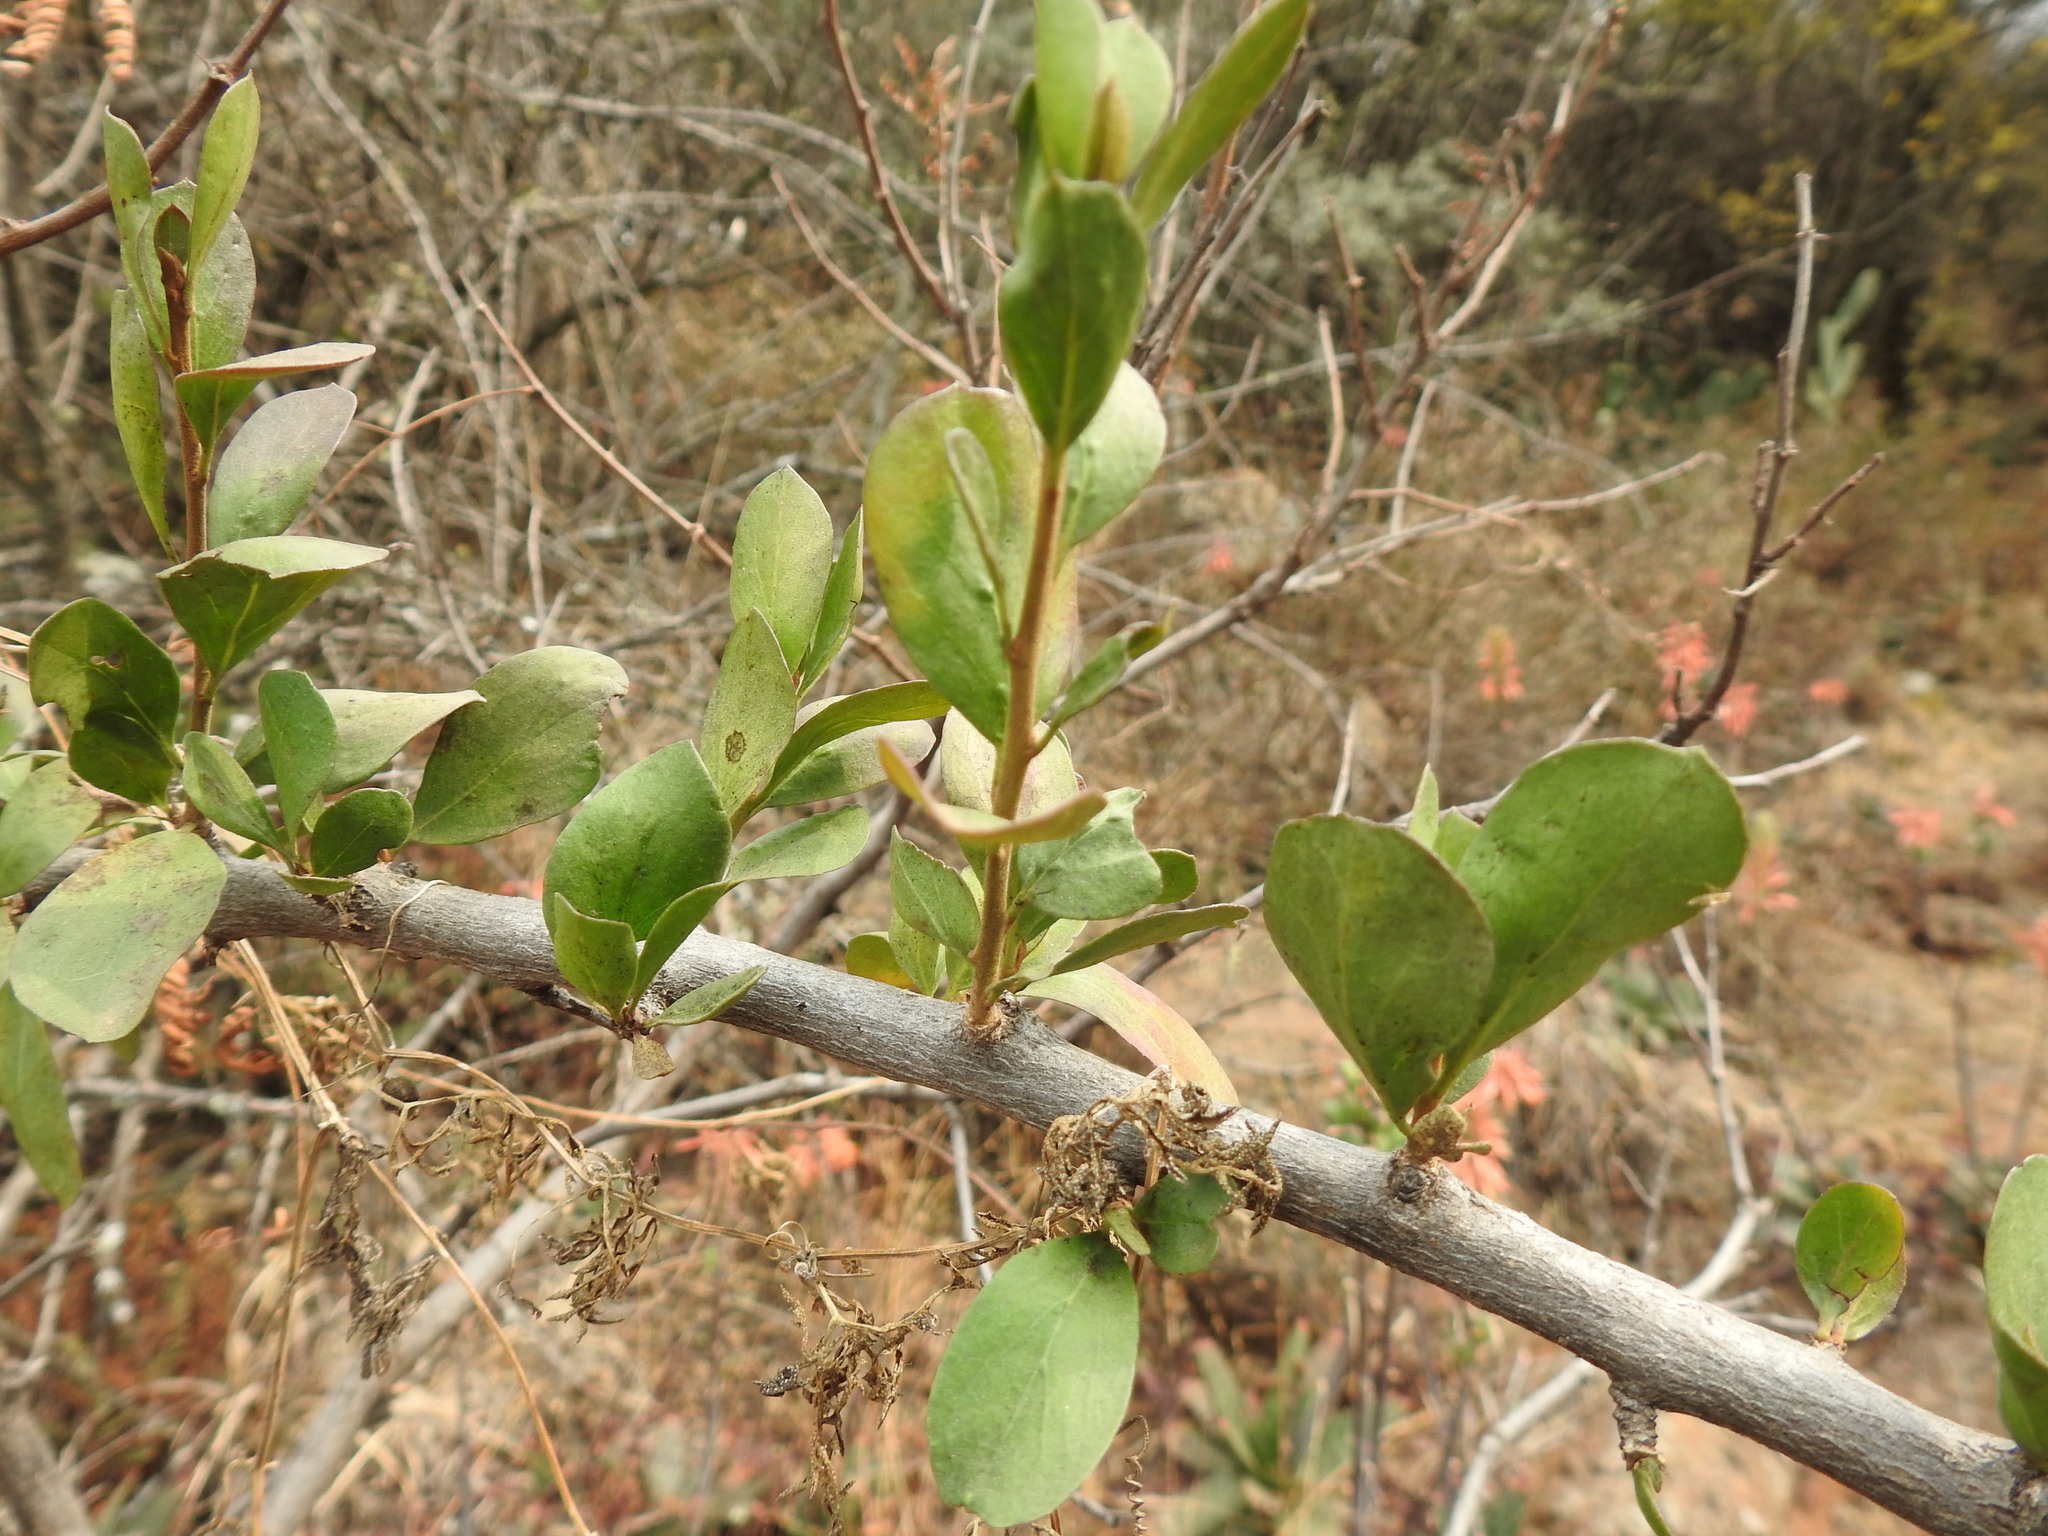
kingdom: Plantae
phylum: Tracheophyta
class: Magnoliopsida
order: Boraginales
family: Ehretiaceae
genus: Ehretia
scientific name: Ehretia rigida
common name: Cape lilac
